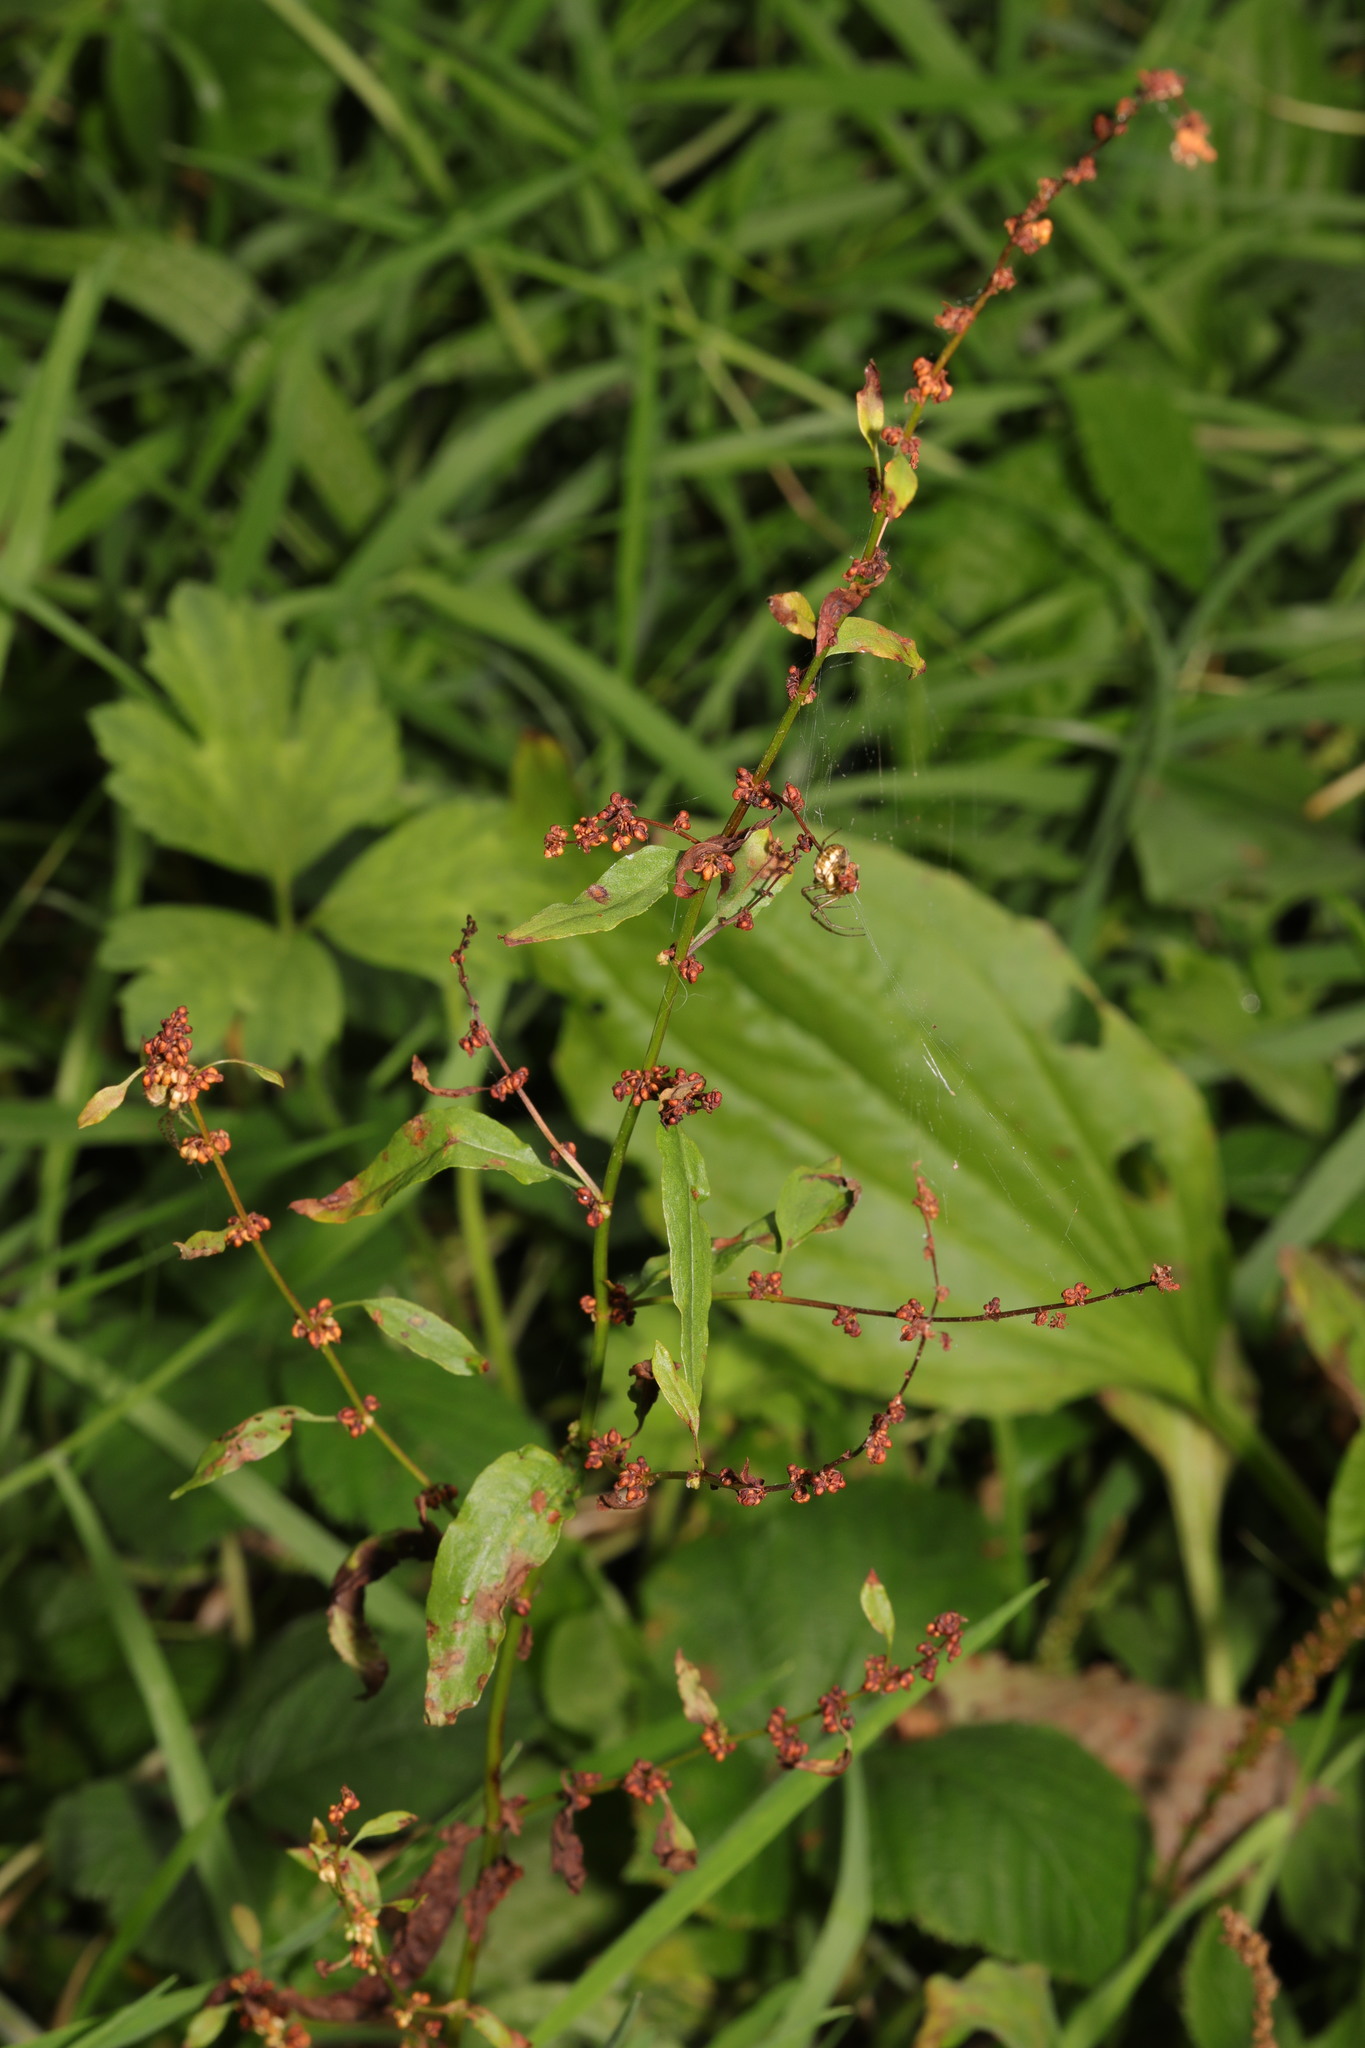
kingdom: Plantae
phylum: Tracheophyta
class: Magnoliopsida
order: Caryophyllales
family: Polygonaceae
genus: Rumex
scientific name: Rumex sanguineus
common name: Wood dock
